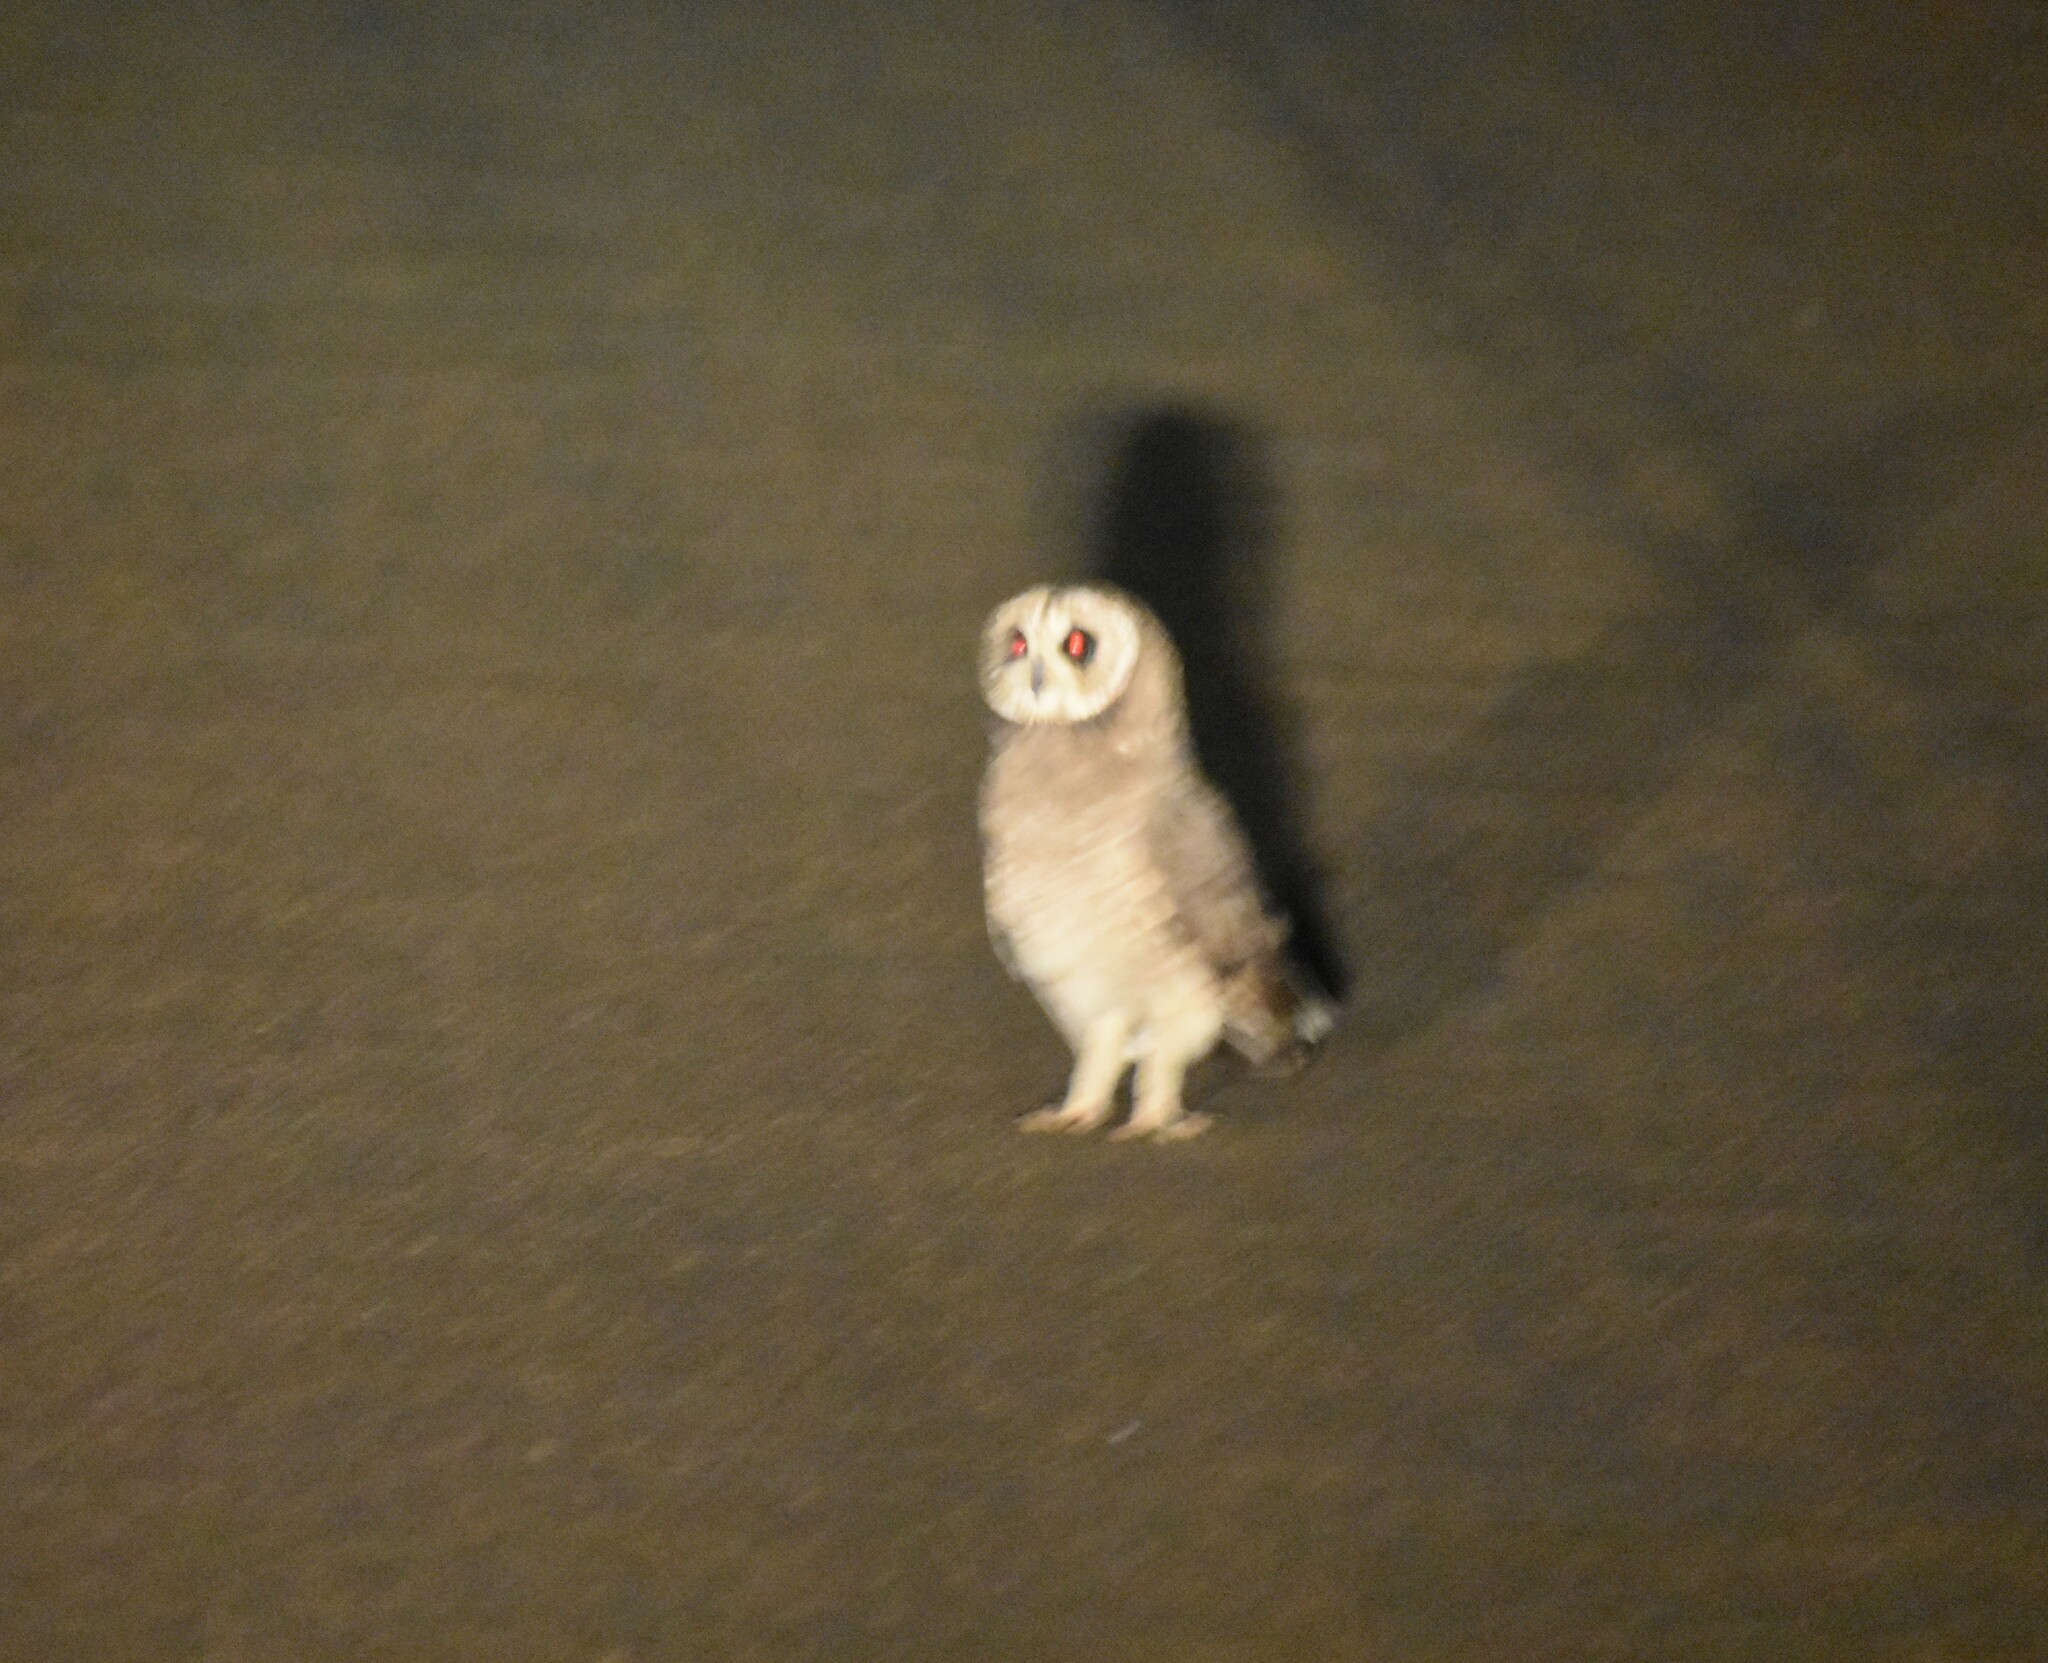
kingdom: Animalia
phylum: Chordata
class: Aves
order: Strigiformes
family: Strigidae
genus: Asio
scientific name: Asio capensis
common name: Marsh owl
